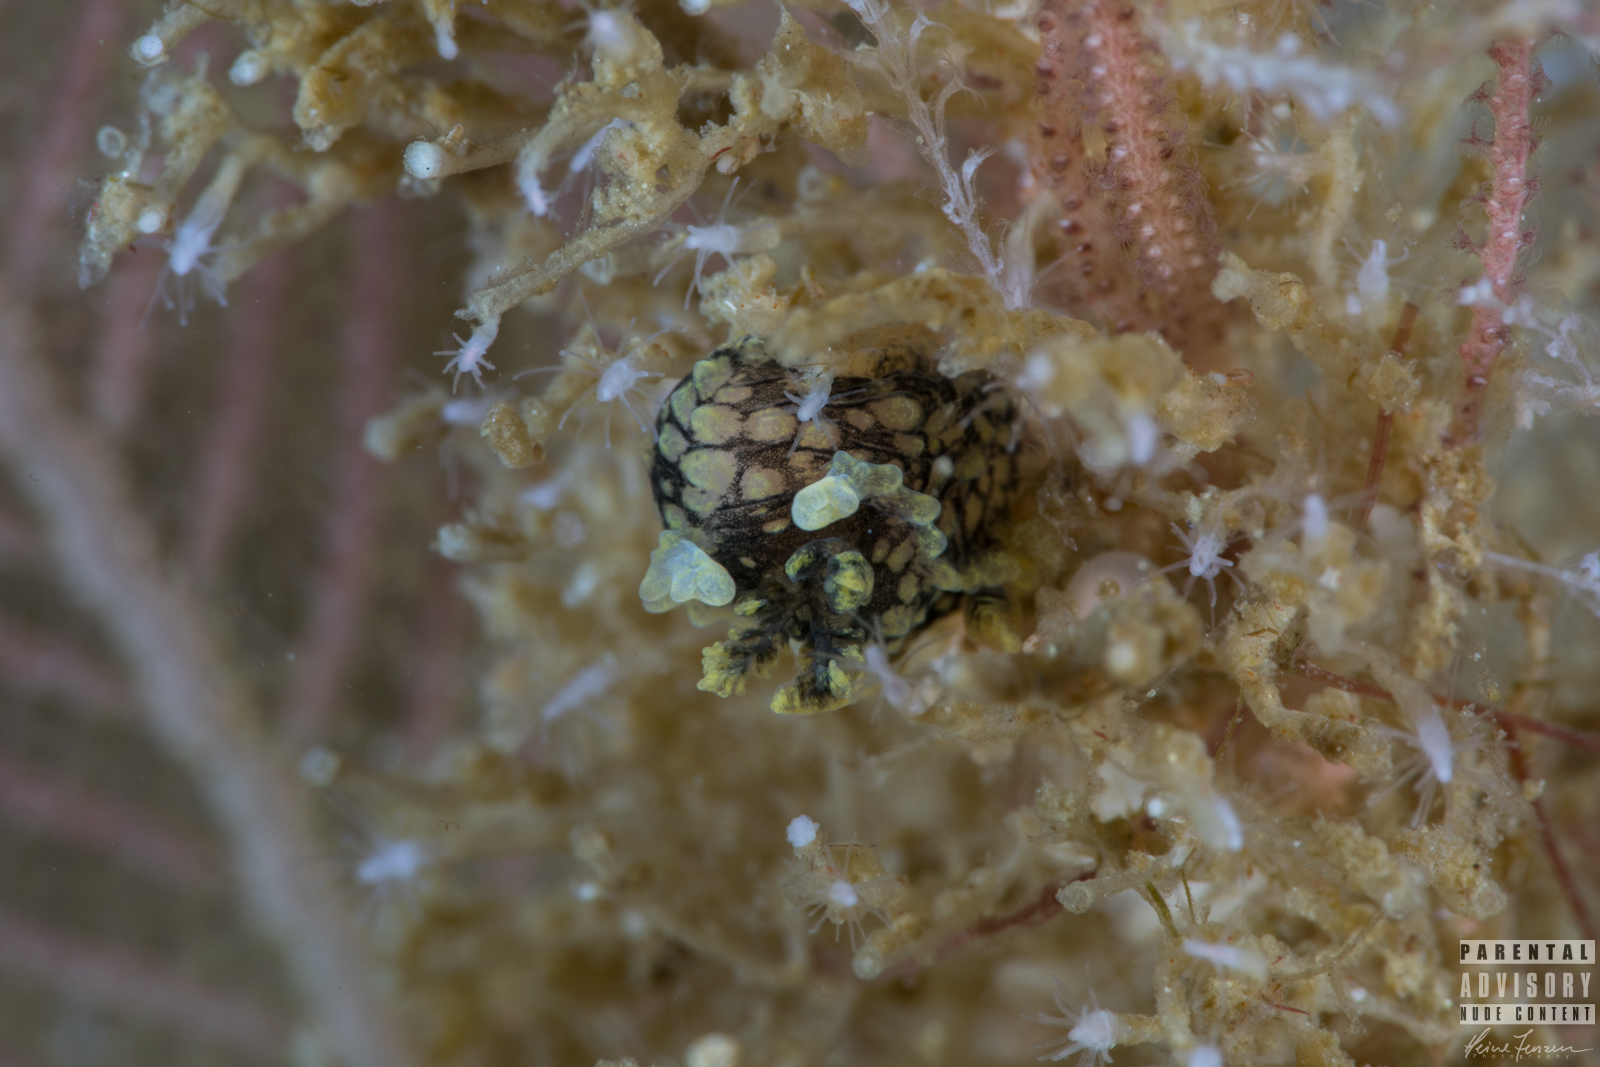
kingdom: Animalia
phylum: Mollusca
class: Gastropoda
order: Nudibranchia
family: Polyceridae
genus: Palio
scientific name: Palio nothus
